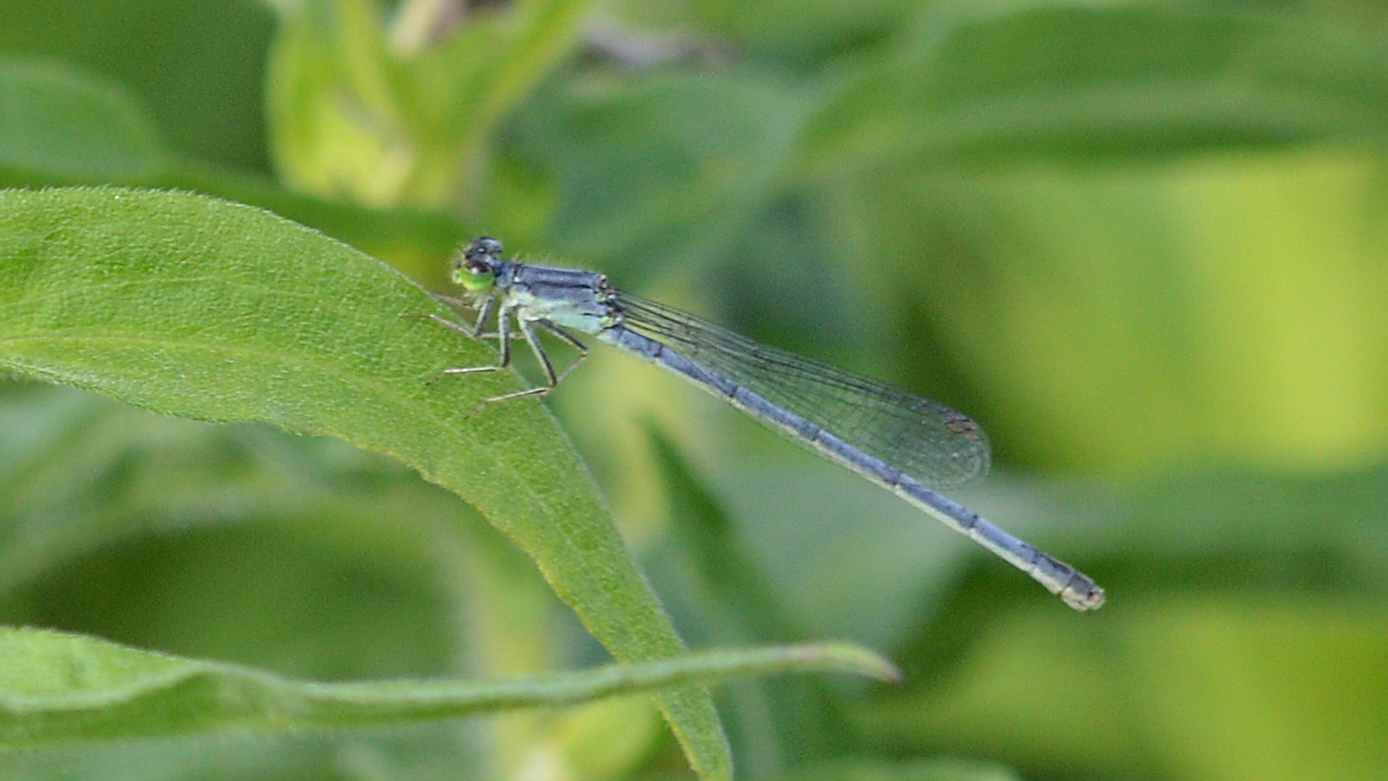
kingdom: Animalia
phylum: Arthropoda
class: Insecta
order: Odonata
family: Coenagrionidae
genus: Ischnura
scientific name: Ischnura verticalis
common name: Eastern forktail
